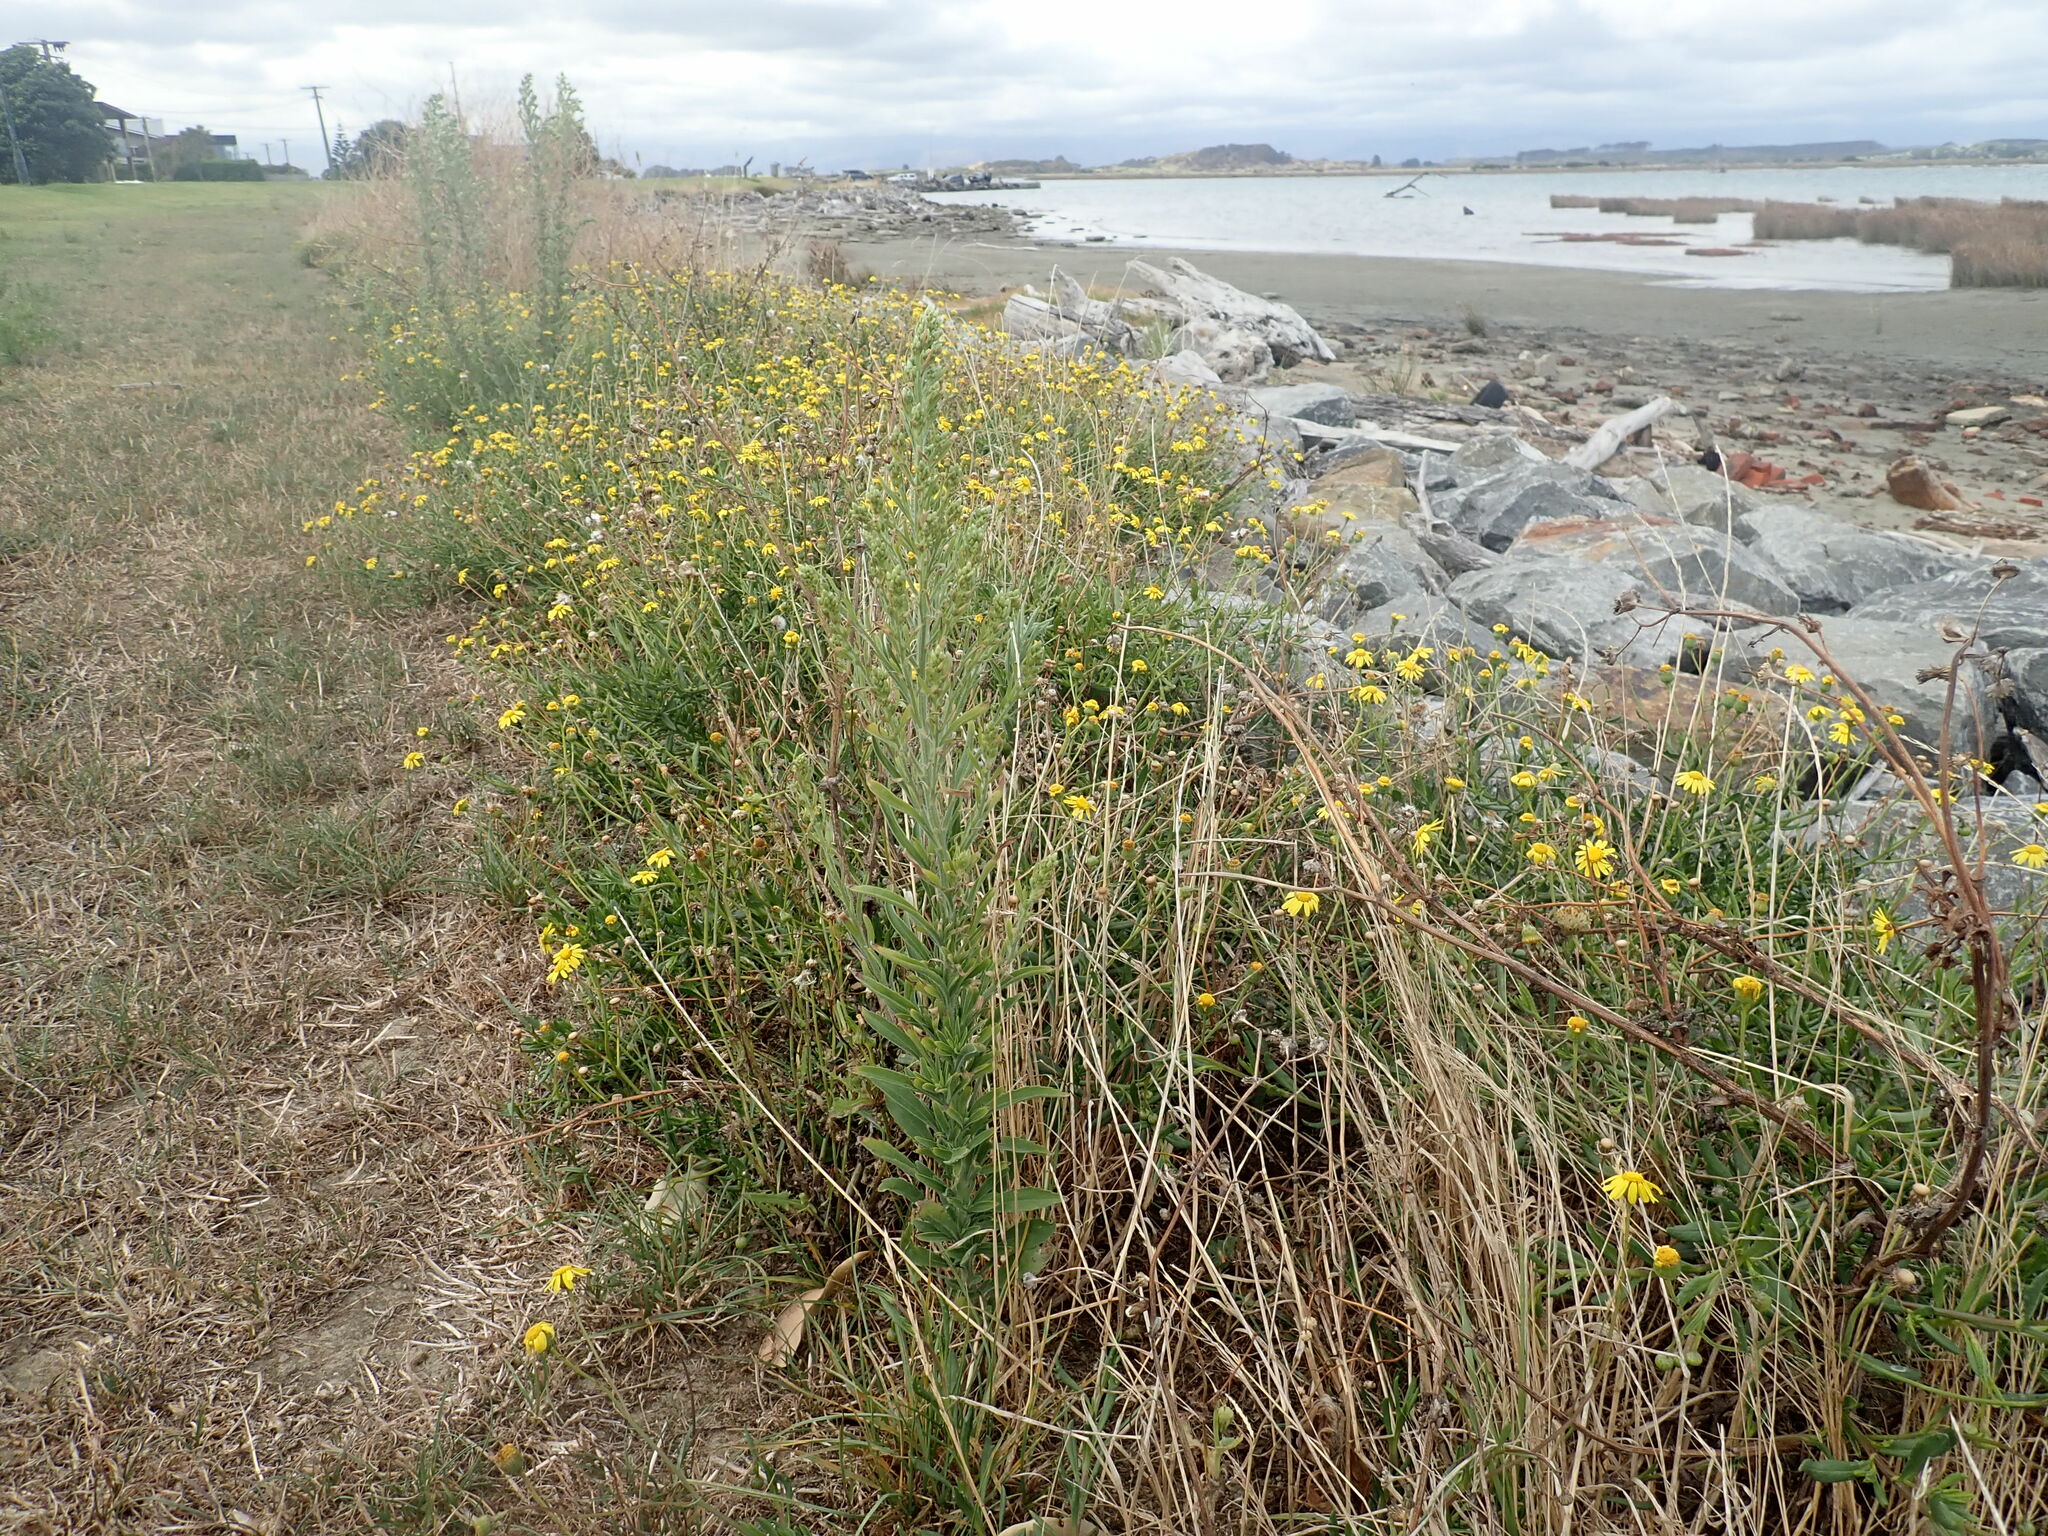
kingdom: Plantae
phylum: Tracheophyta
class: Magnoliopsida
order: Asterales
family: Asteraceae
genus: Senecio
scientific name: Senecio skirrhodon
